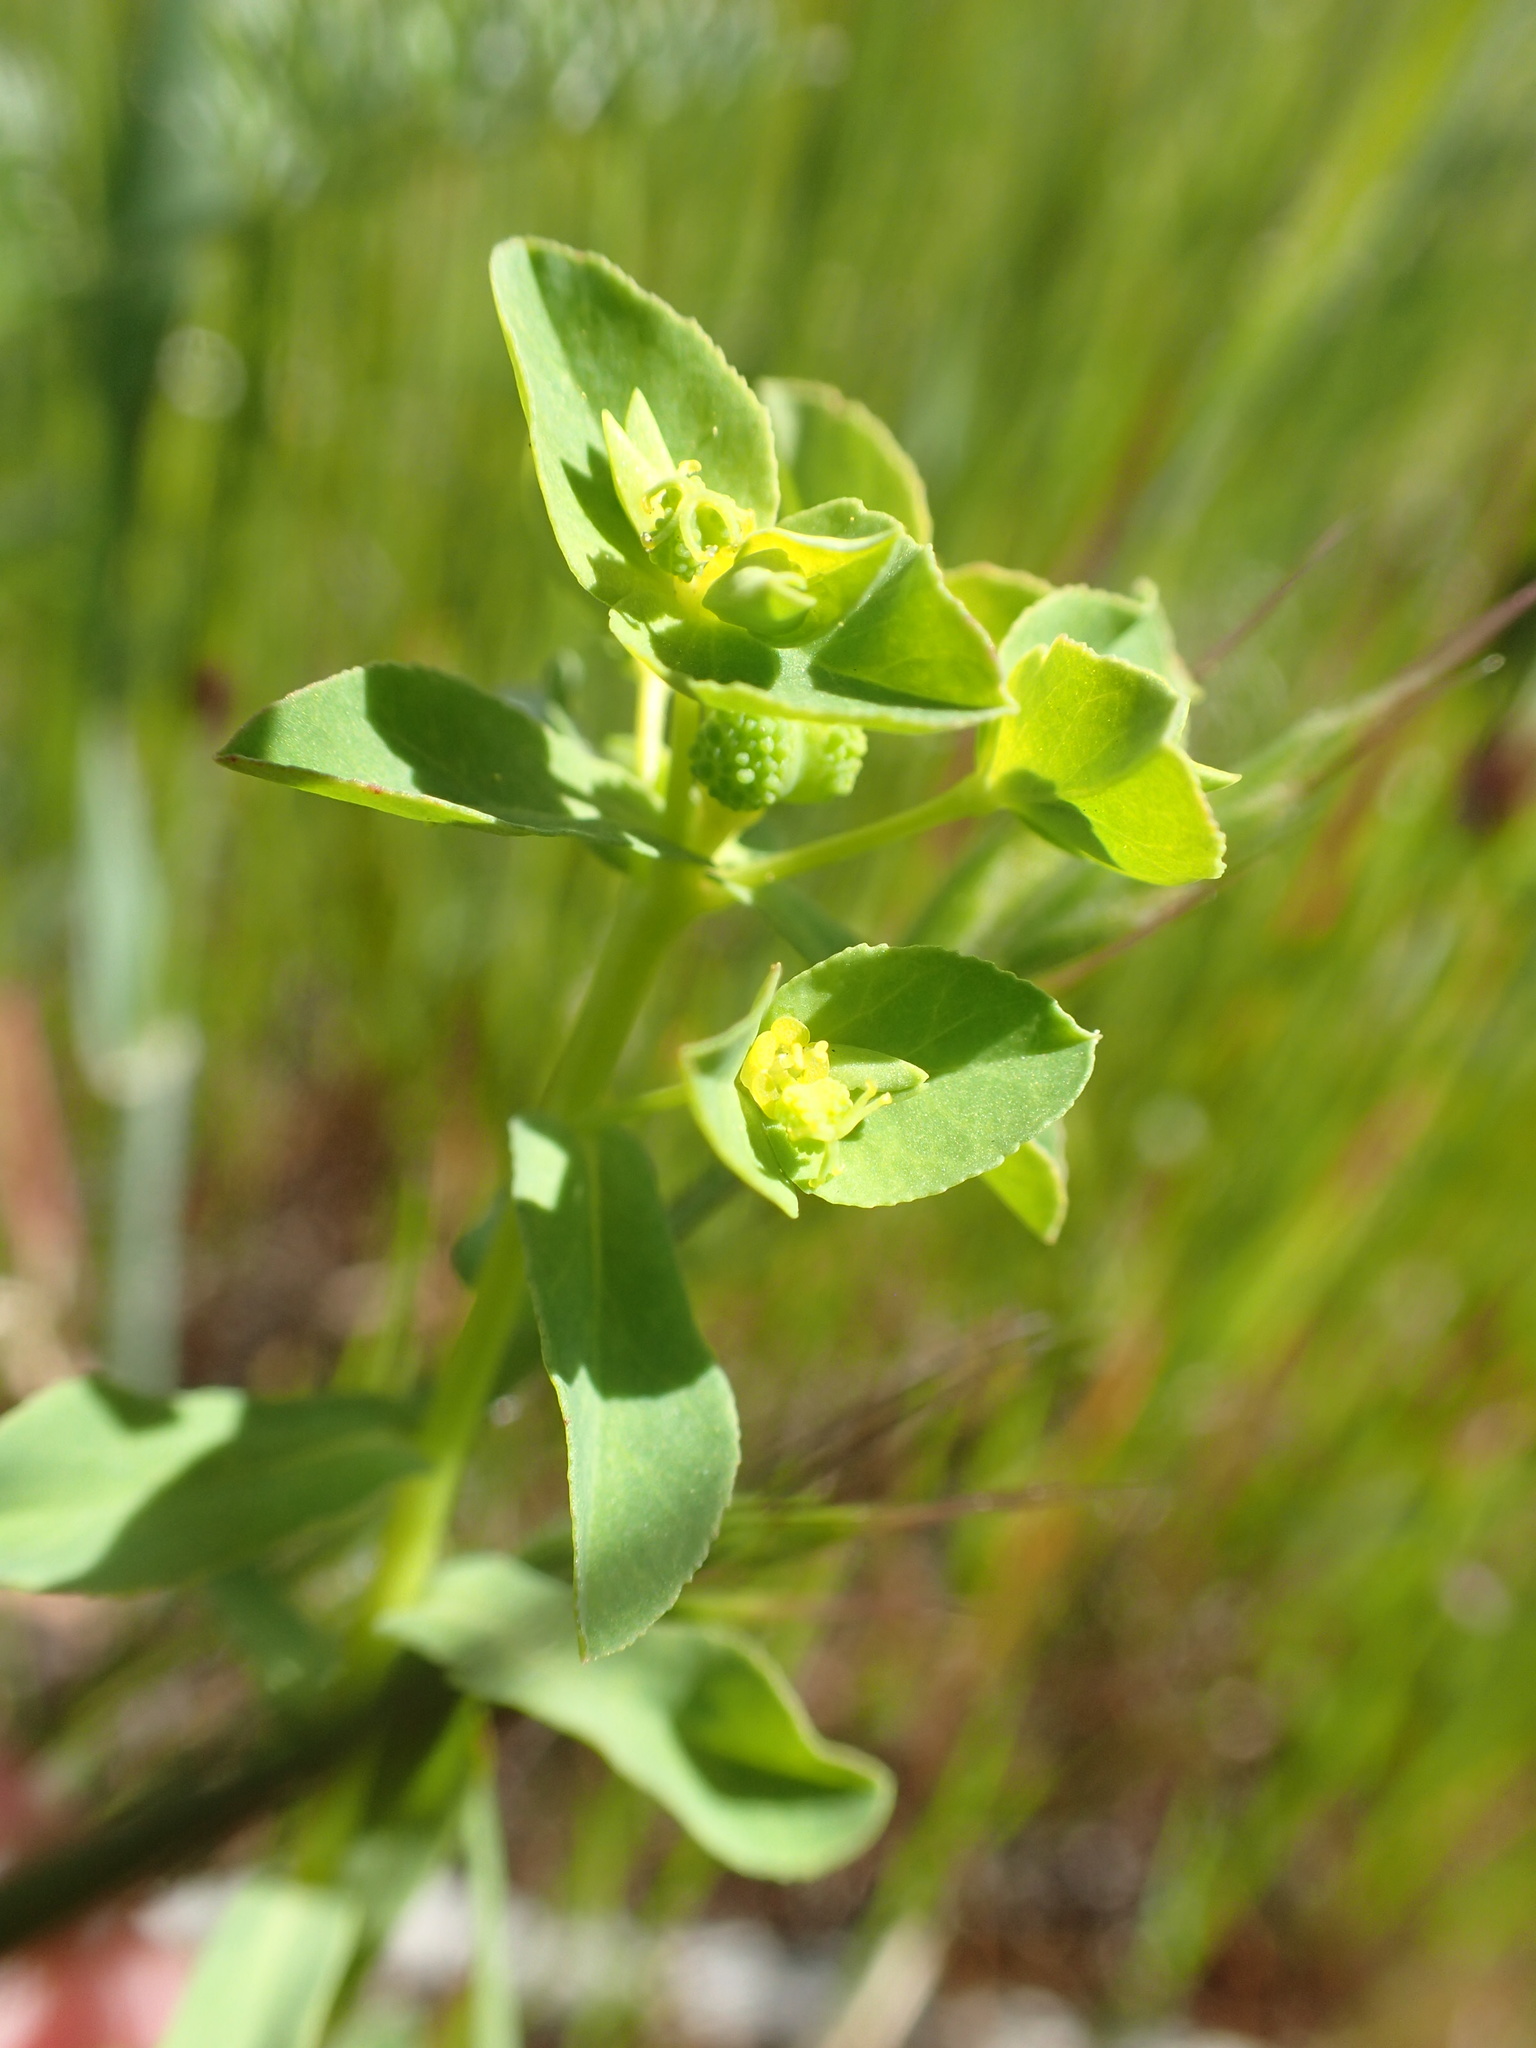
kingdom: Plantae
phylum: Tracheophyta
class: Magnoliopsida
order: Malpighiales
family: Euphorbiaceae
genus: Euphorbia
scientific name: Euphorbia spathulata
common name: Blunt spurge
